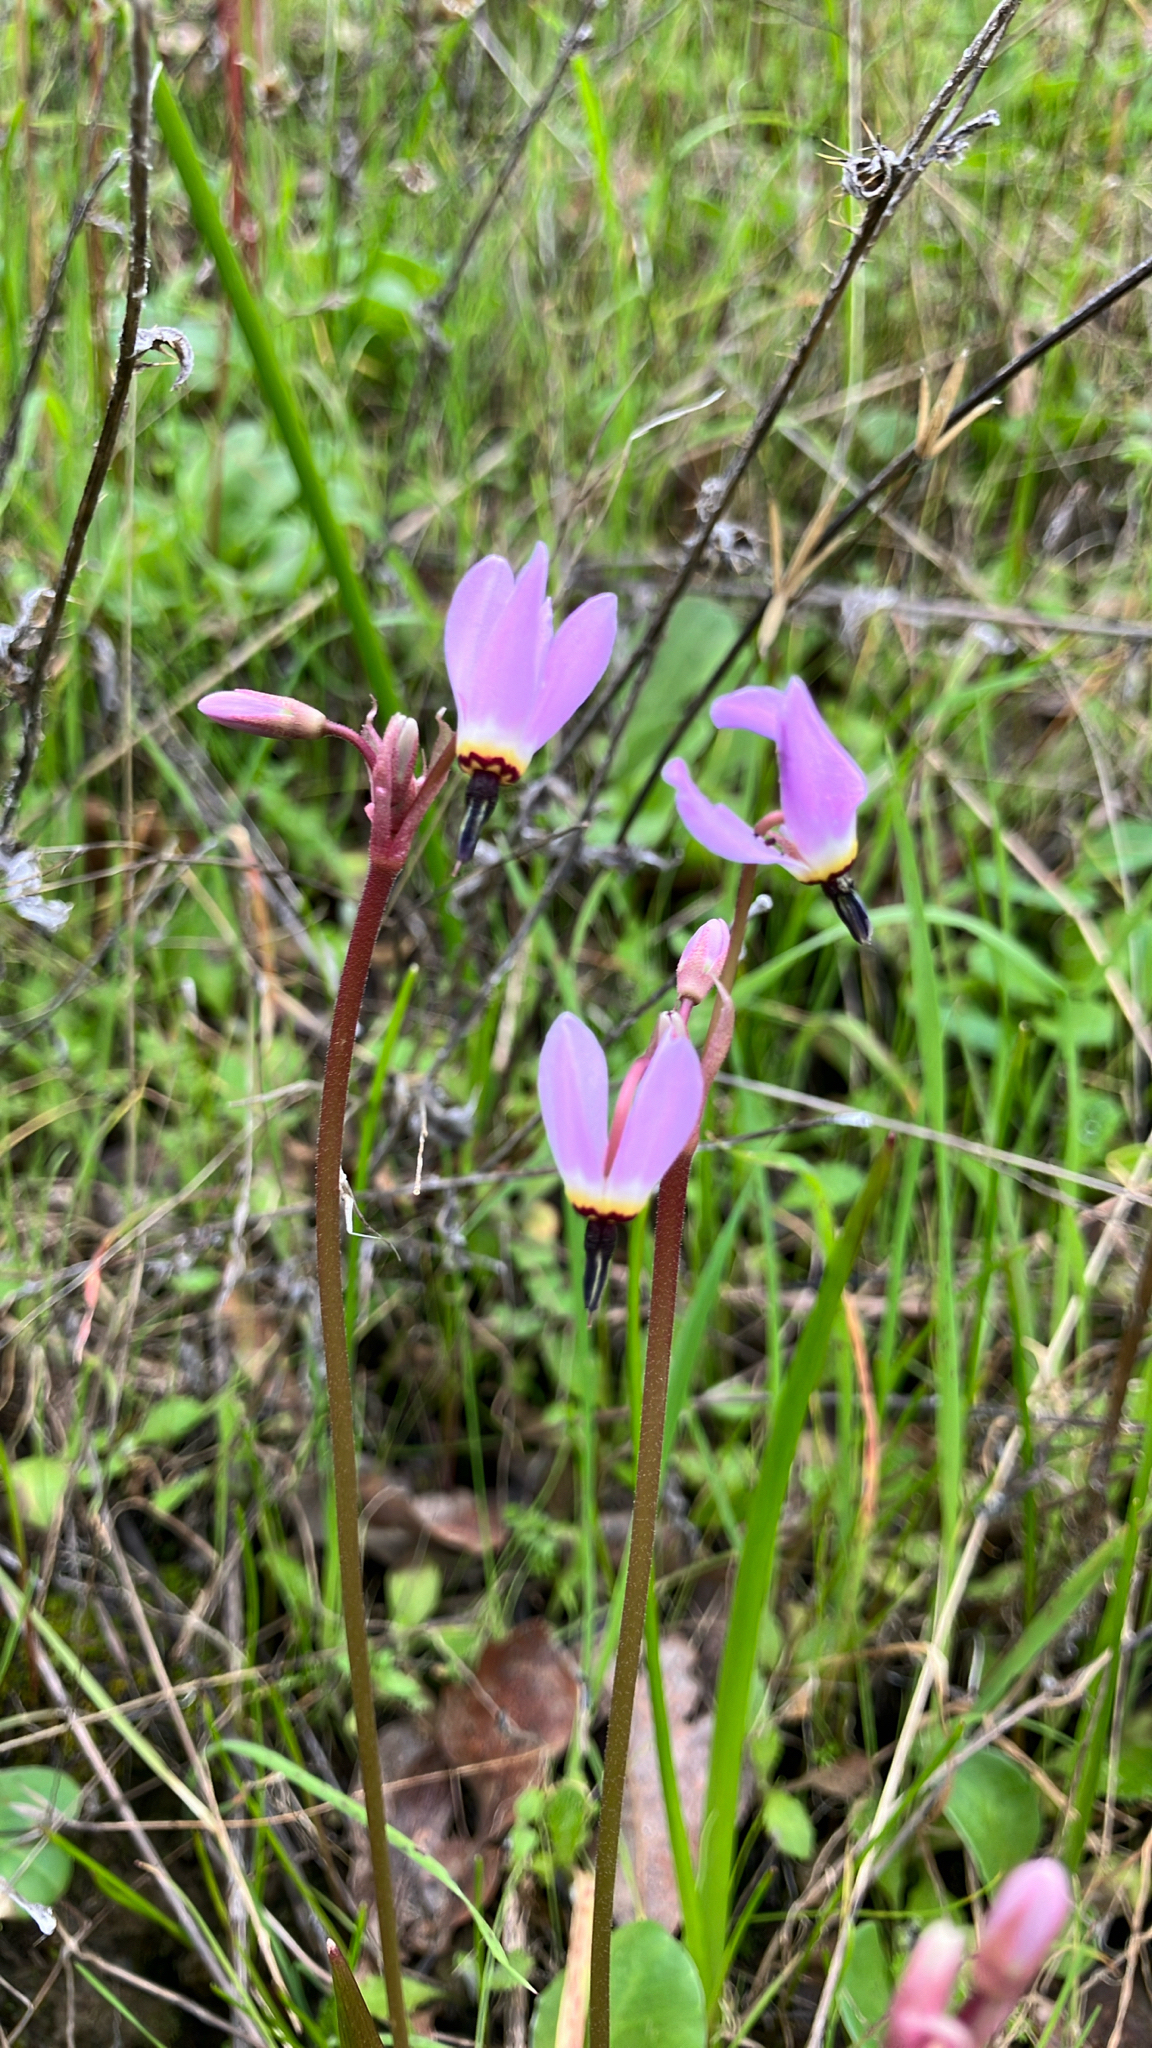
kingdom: Plantae
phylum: Tracheophyta
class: Magnoliopsida
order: Ericales
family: Primulaceae
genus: Dodecatheon
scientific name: Dodecatheon hendersonii
